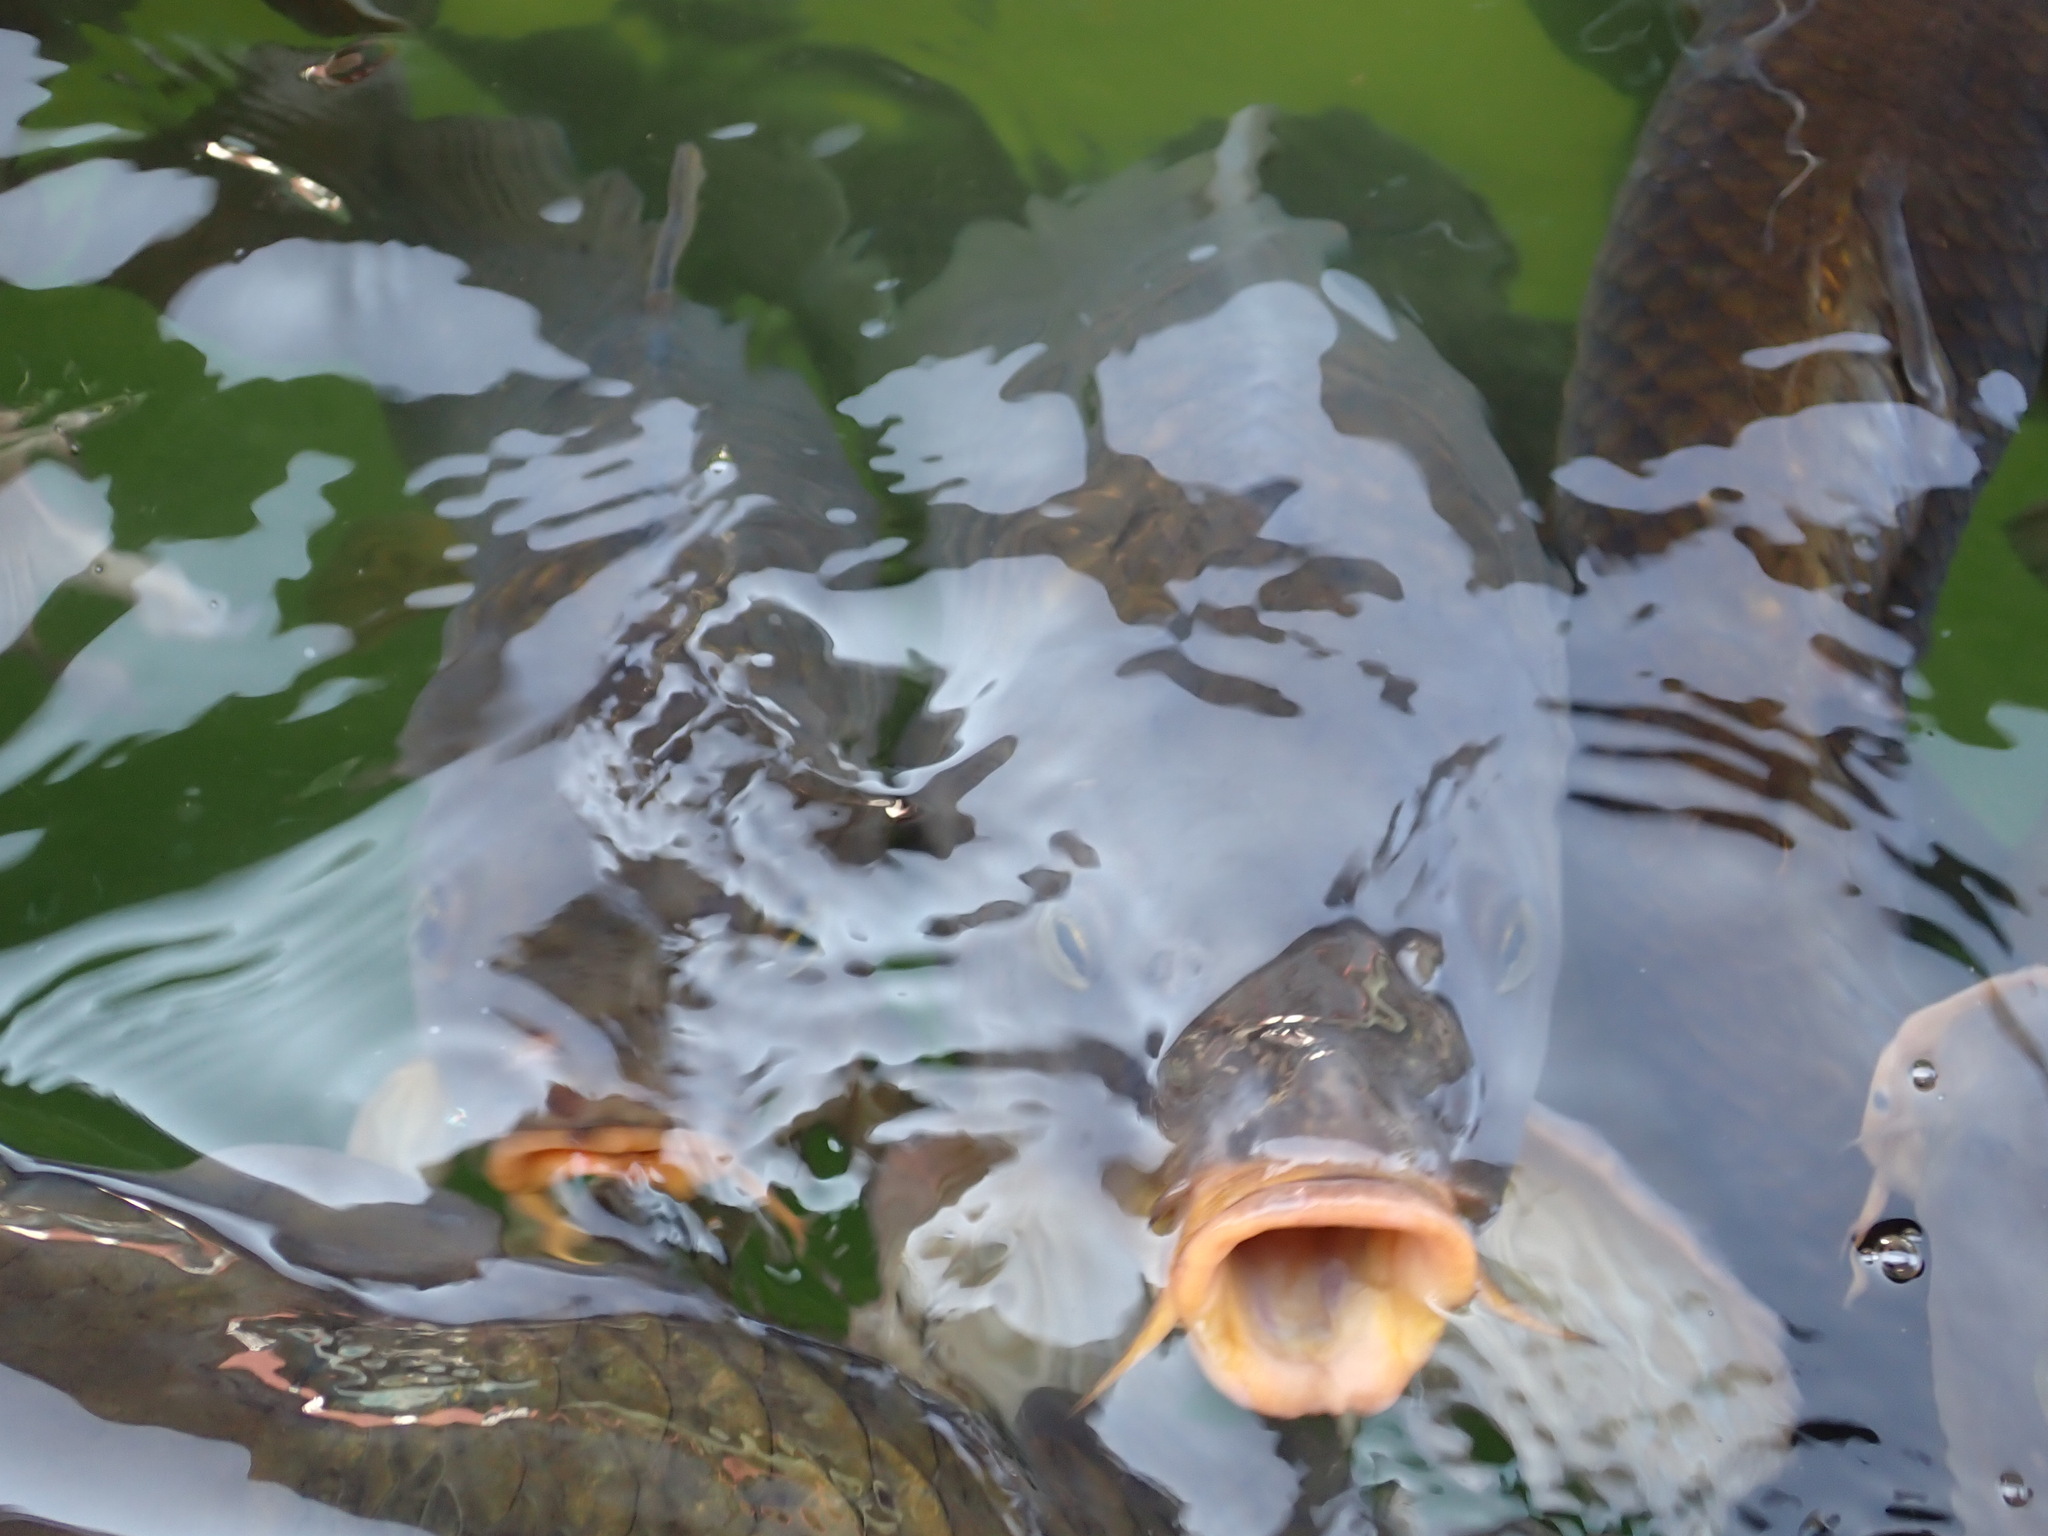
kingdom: Animalia
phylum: Chordata
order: Cypriniformes
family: Cyprinidae
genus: Cyprinus
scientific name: Cyprinus carpio
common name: Common carp
